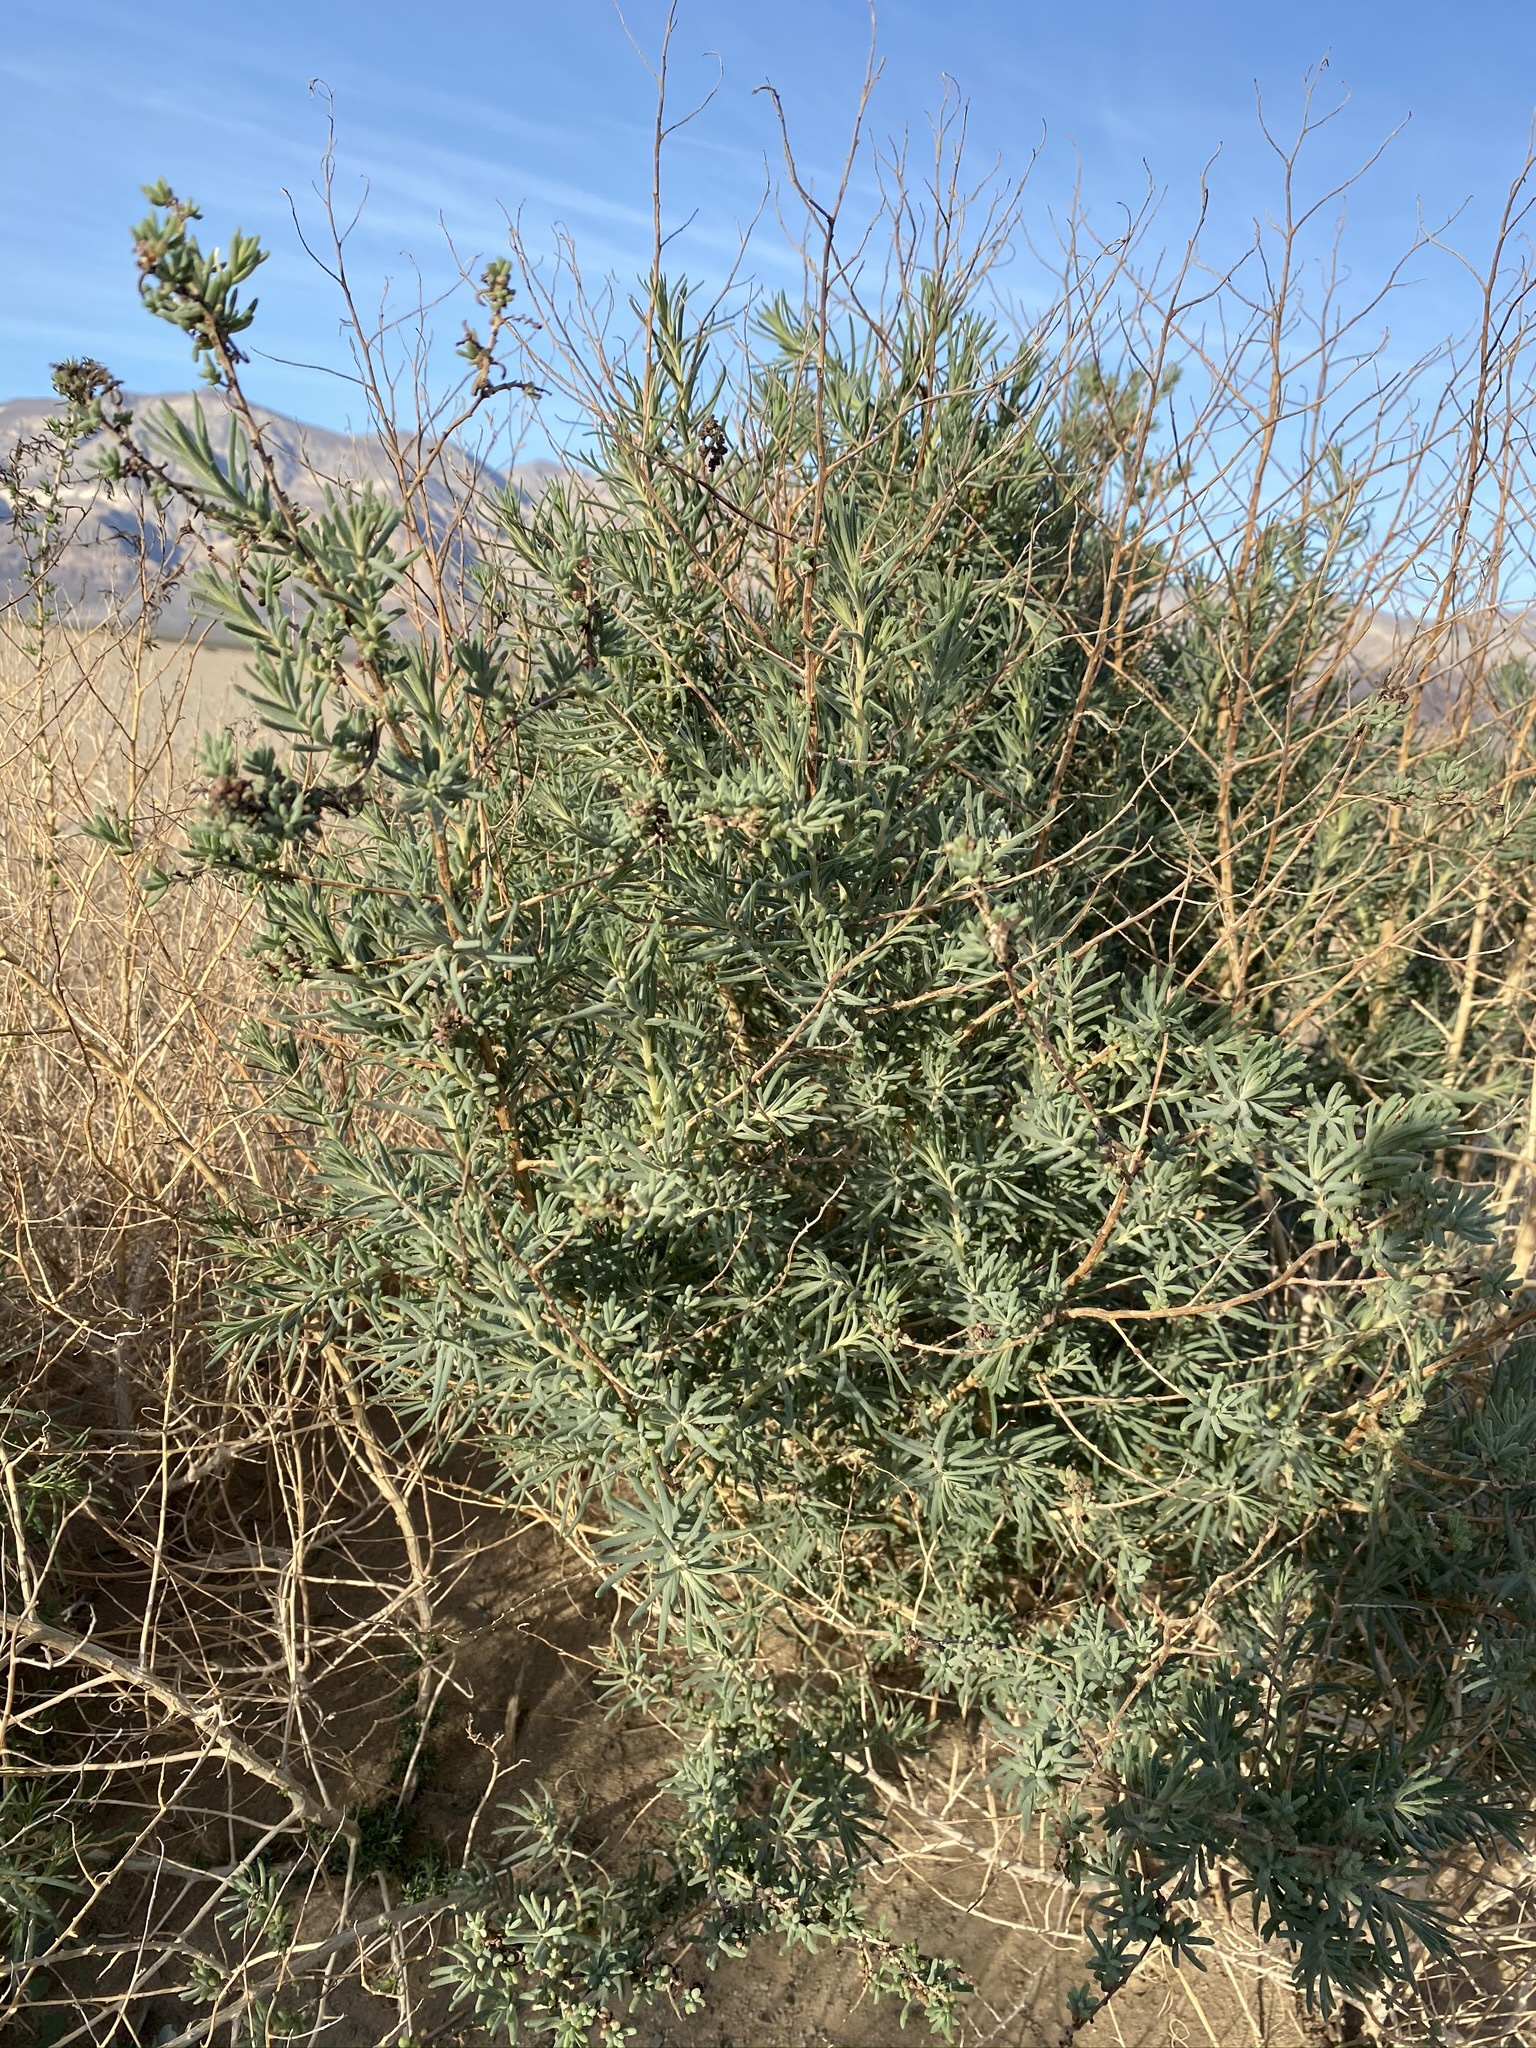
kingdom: Plantae
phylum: Tracheophyta
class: Magnoliopsida
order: Caryophyllales
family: Amaranthaceae
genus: Suaeda
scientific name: Suaeda nigra
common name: Bush seepweed
